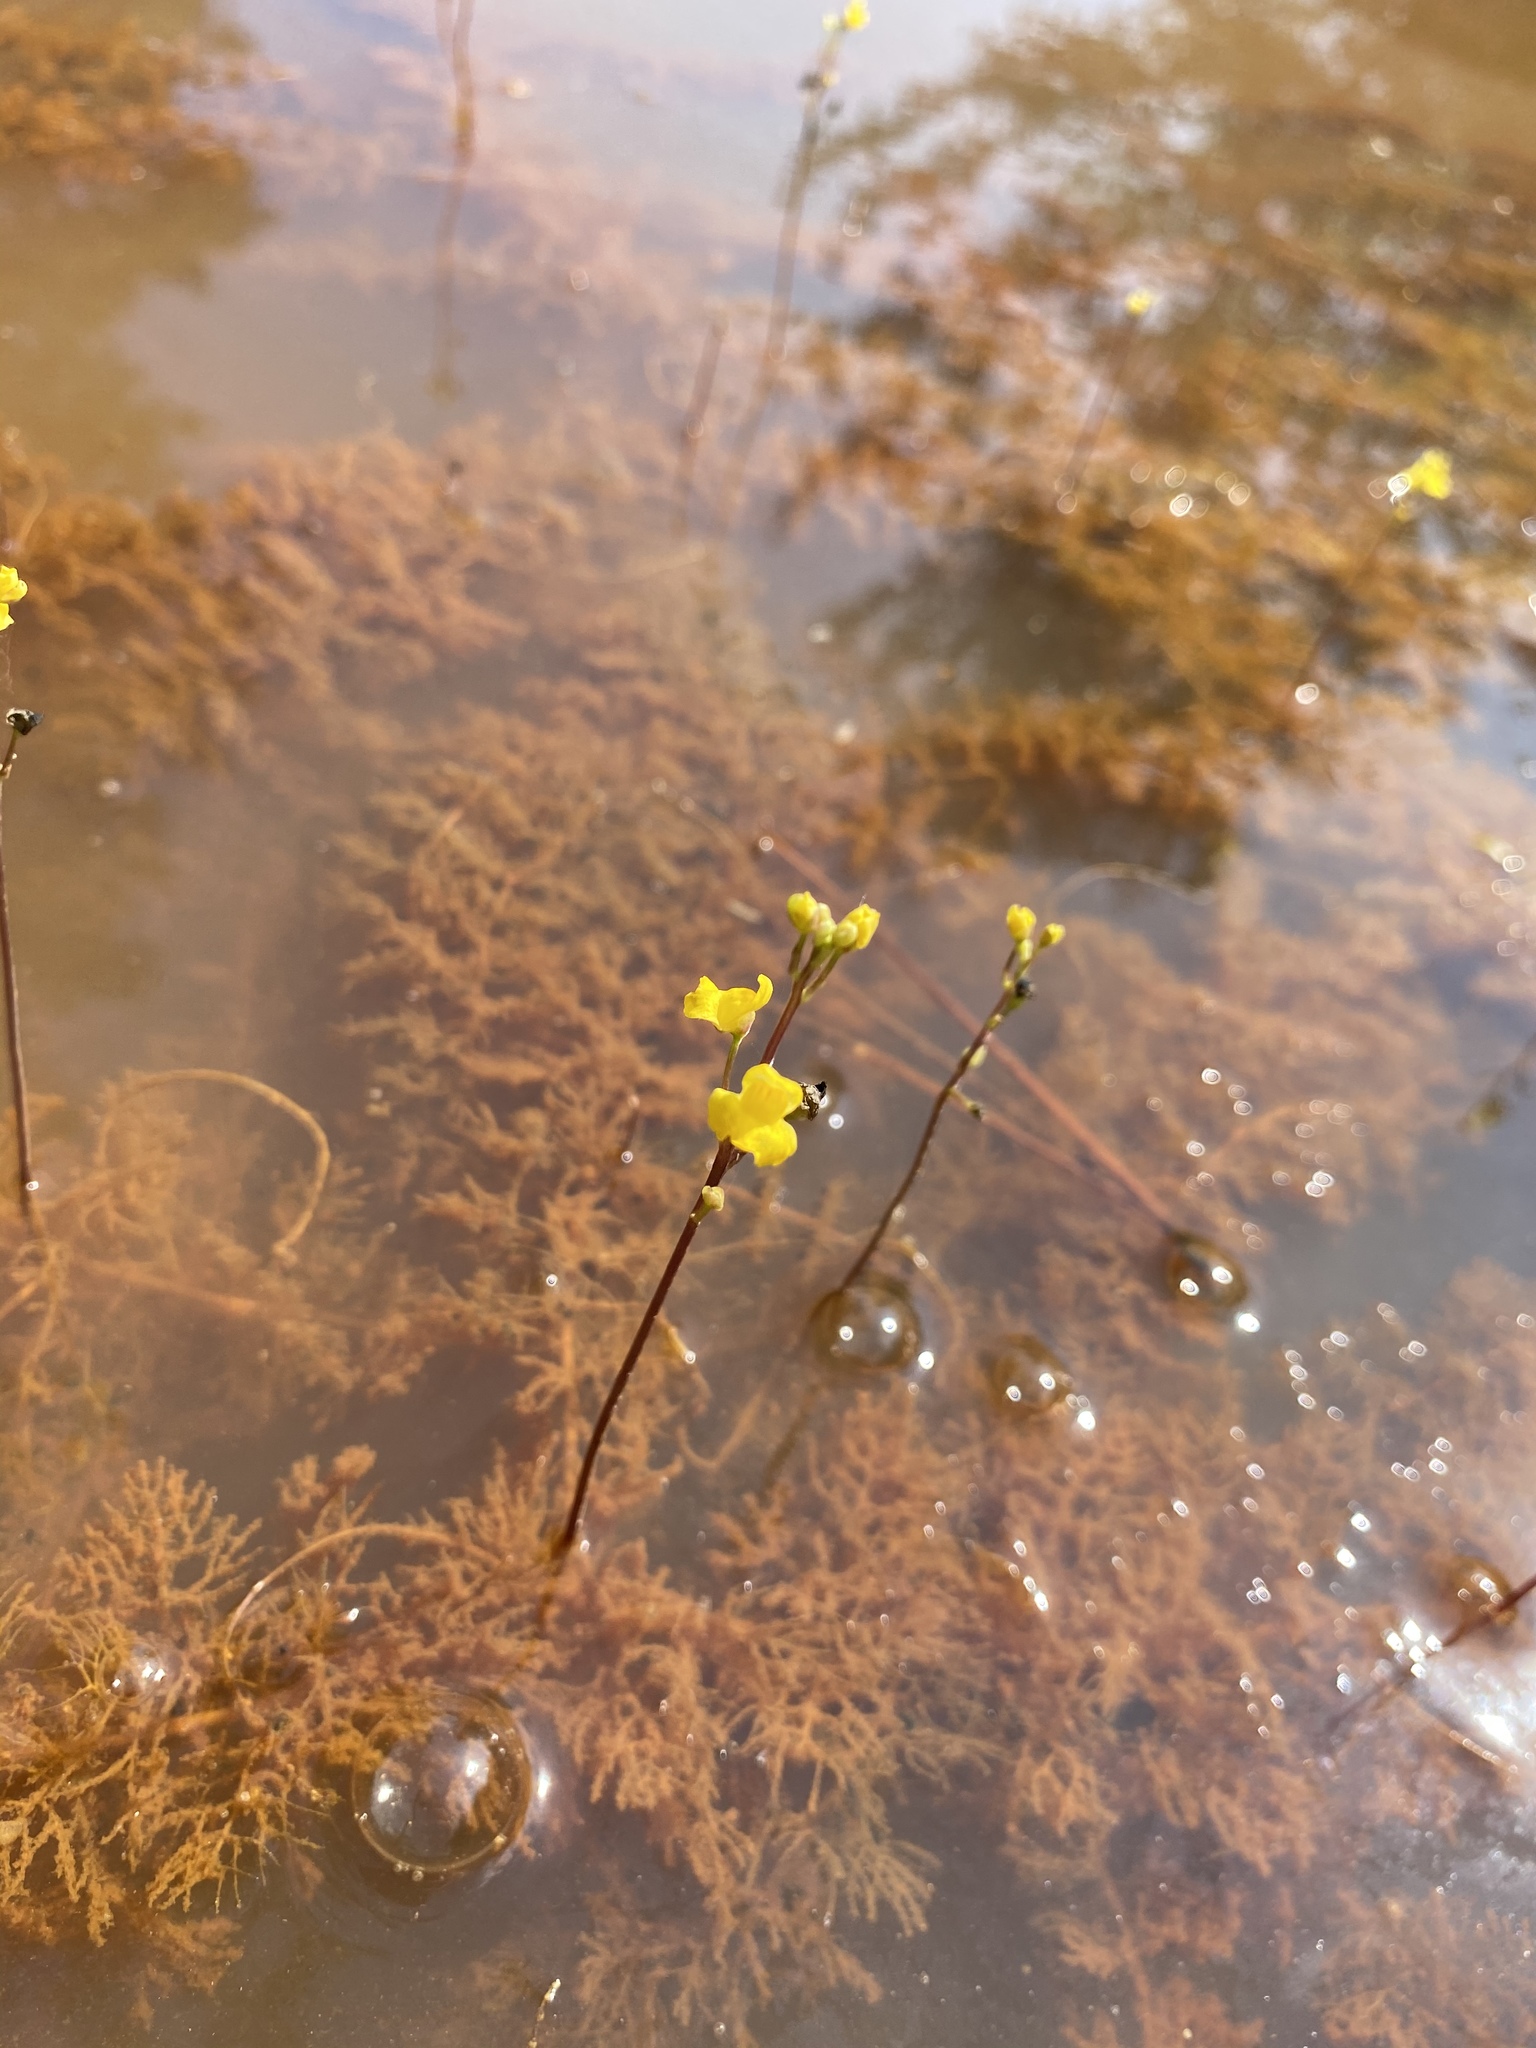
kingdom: Plantae
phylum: Tracheophyta
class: Magnoliopsida
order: Lamiales
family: Lentibulariaceae
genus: Utricularia
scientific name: Utricularia geminiscapa
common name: Hidden-fruit bladderwort
